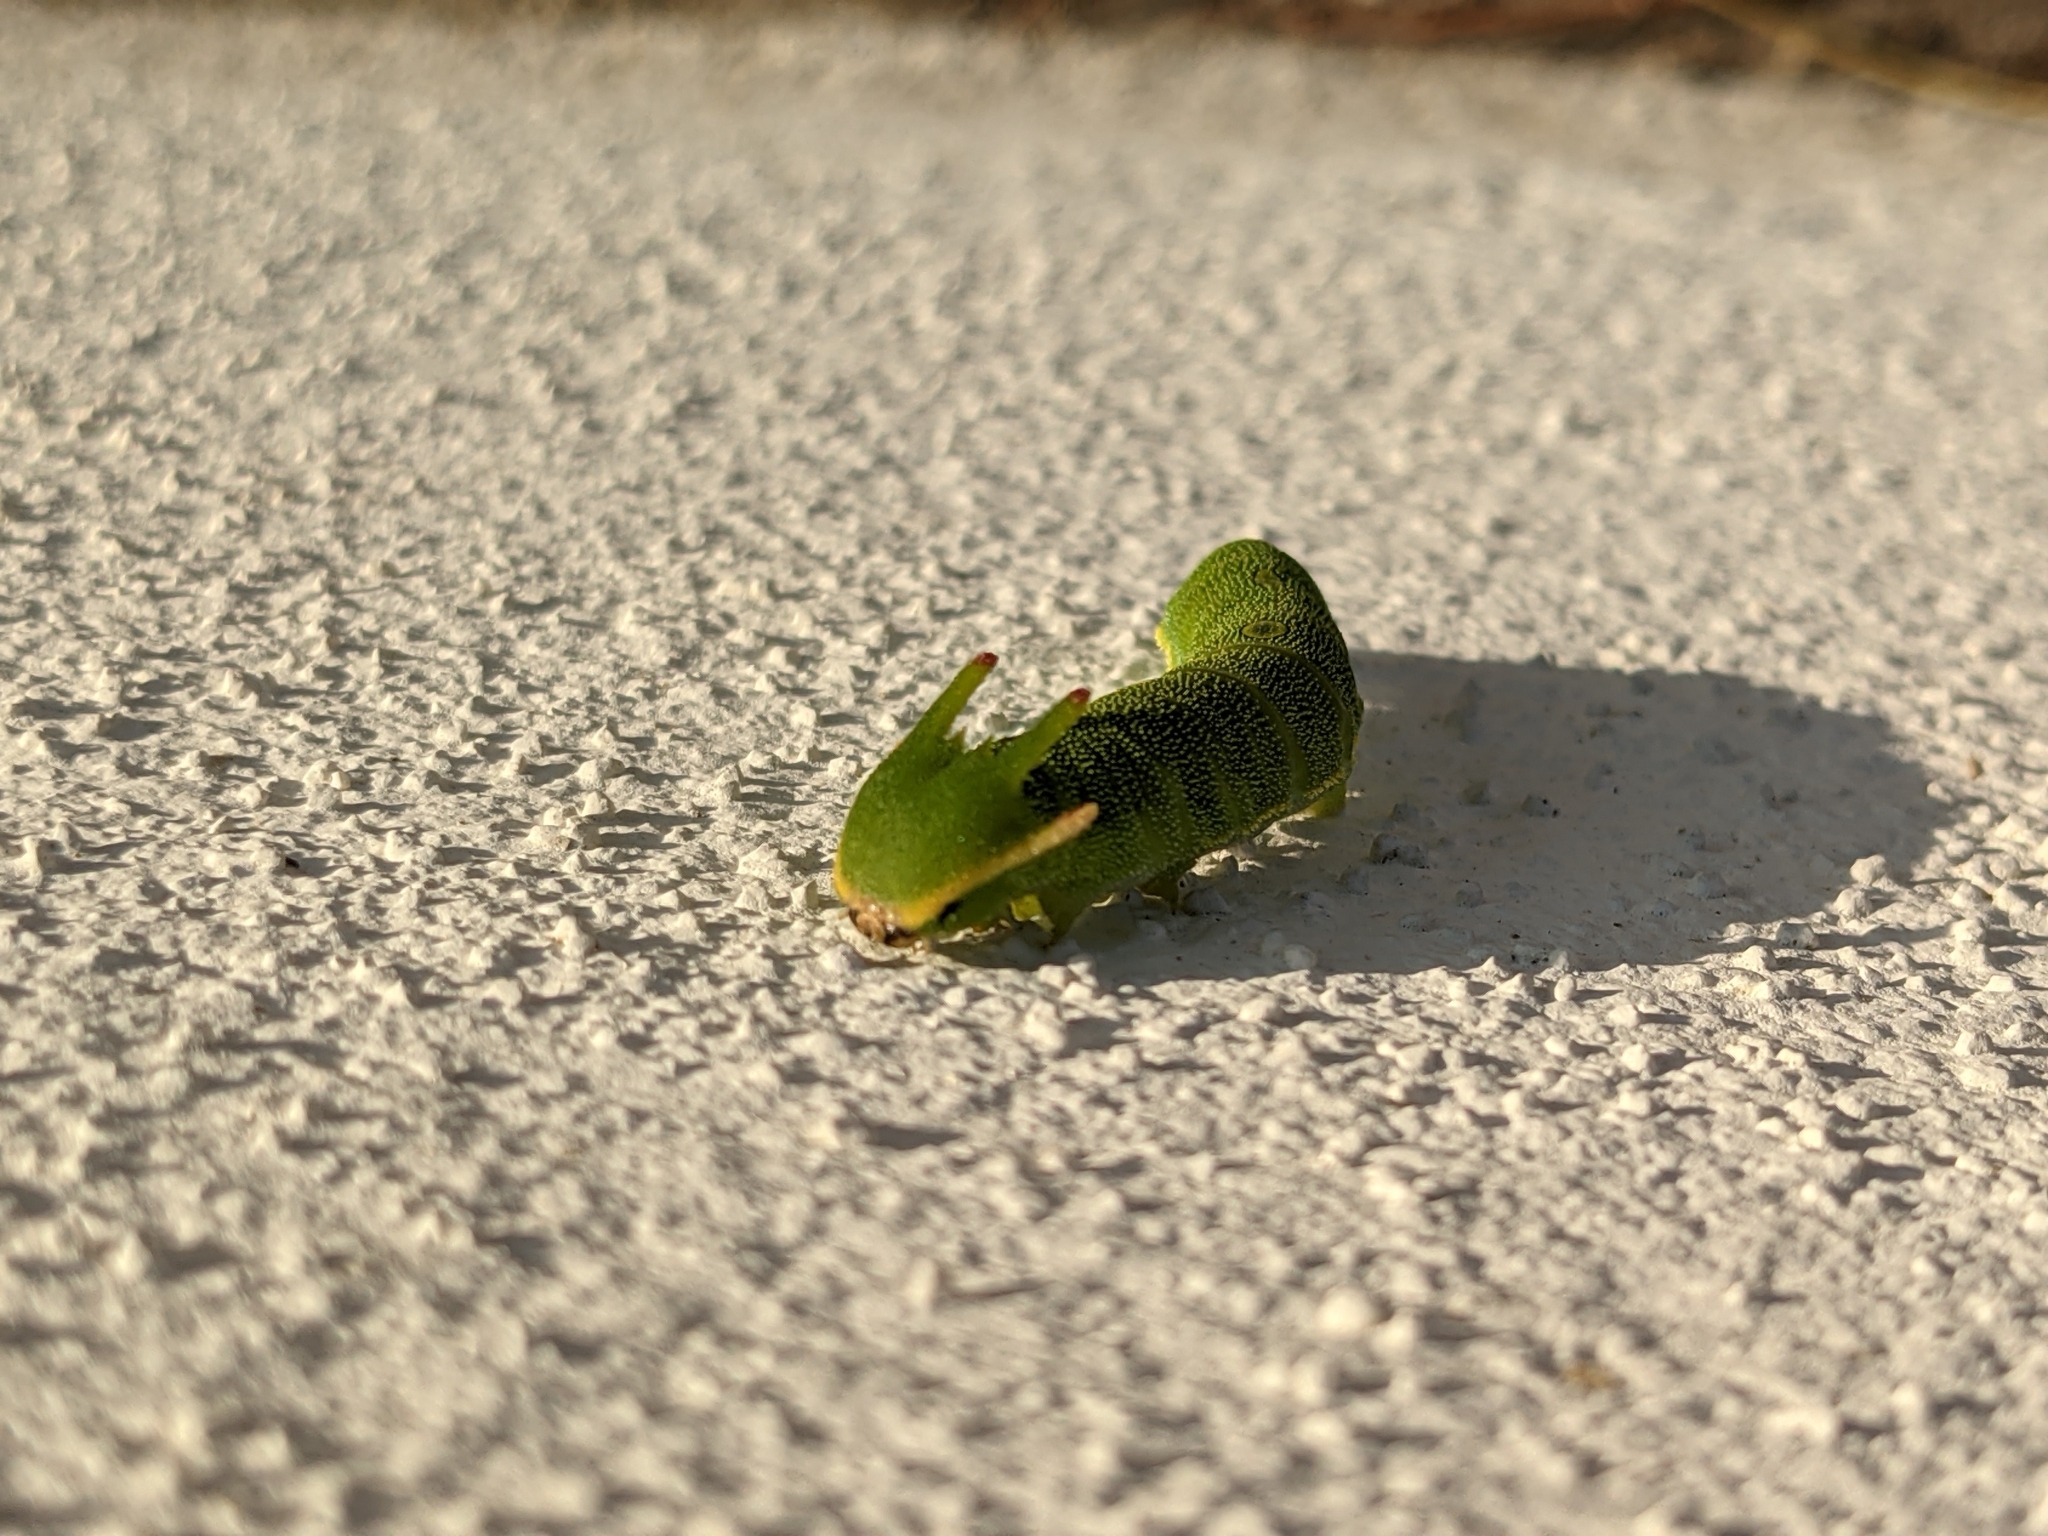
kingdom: Animalia
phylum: Arthropoda
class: Insecta
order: Lepidoptera
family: Nymphalidae
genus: Charaxes
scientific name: Charaxes jasius
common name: Two tailed pasha
